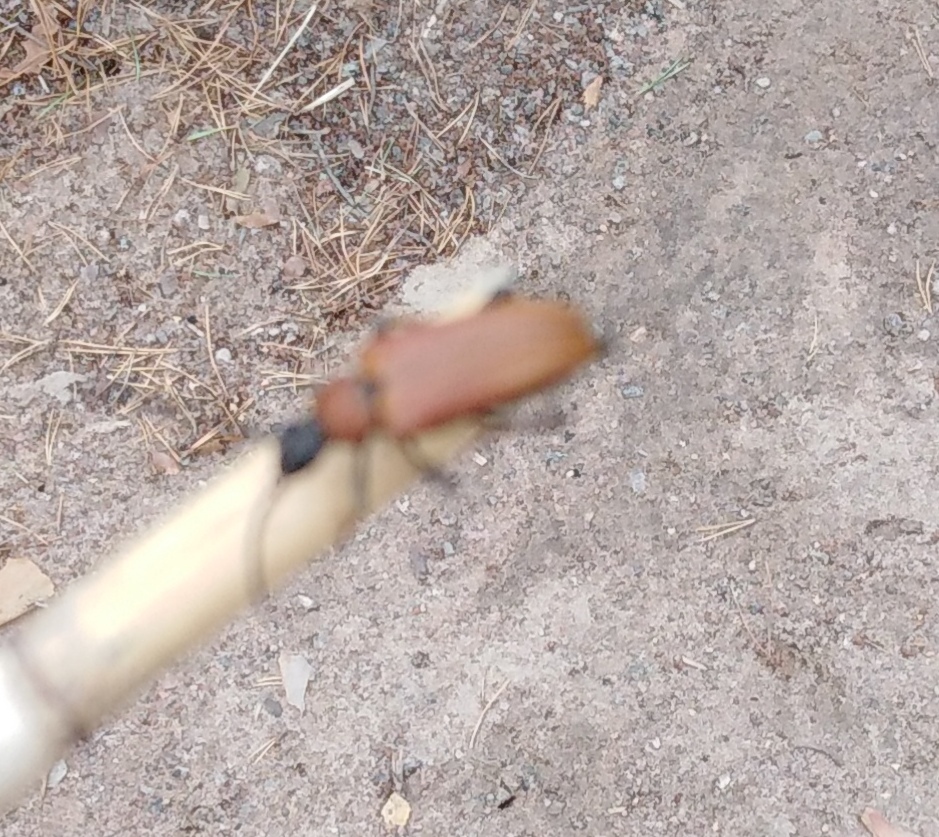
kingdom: Animalia
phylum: Arthropoda
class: Insecta
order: Coleoptera
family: Cerambycidae
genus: Stictoleptura
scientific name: Stictoleptura rubra
